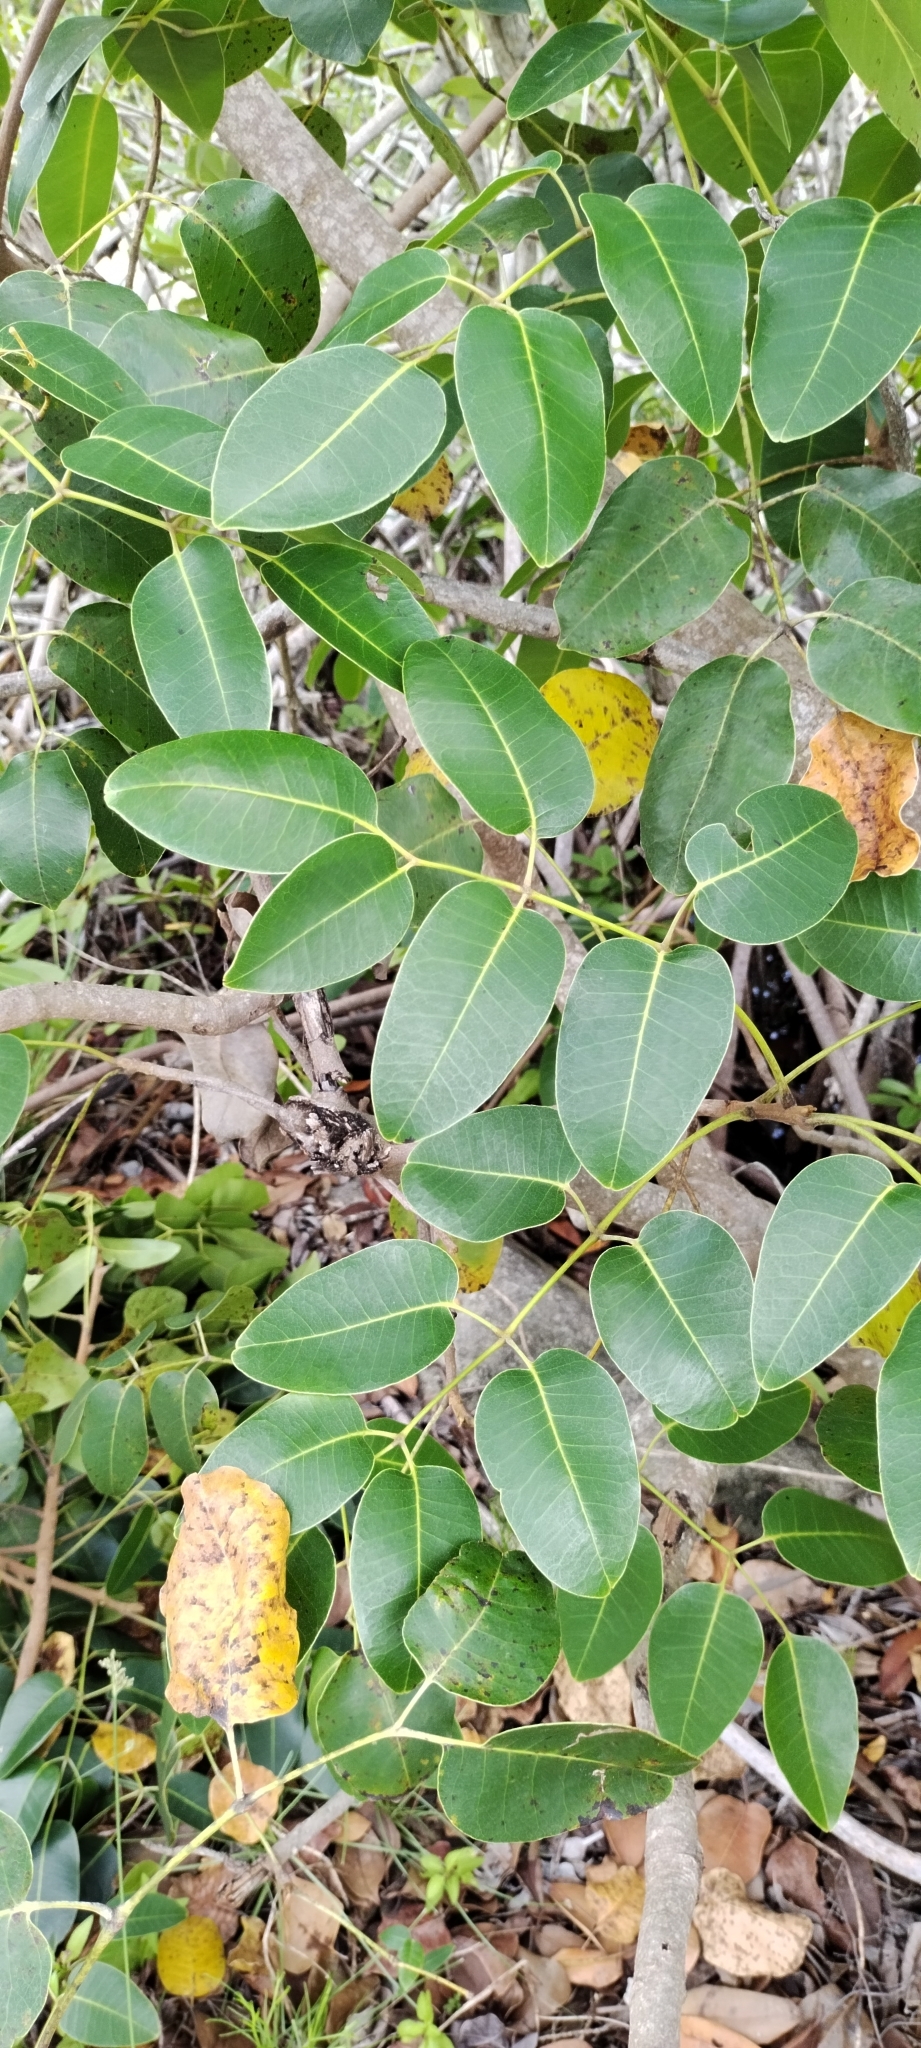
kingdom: Plantae
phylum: Tracheophyta
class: Magnoliopsida
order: Sapindales
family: Anacardiaceae
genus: Metopium
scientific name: Metopium toxiferum
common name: Florida poisontree
